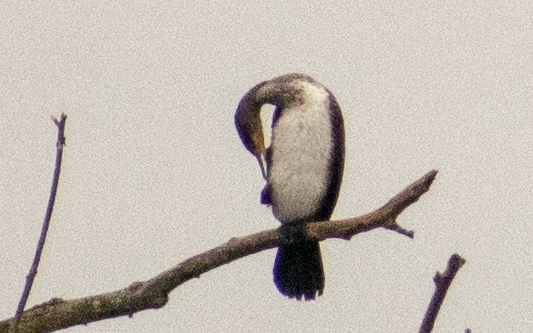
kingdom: Animalia
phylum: Chordata
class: Aves
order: Suliformes
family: Phalacrocoracidae
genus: Phalacrocorax
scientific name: Phalacrocorax carbo
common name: Great cormorant
